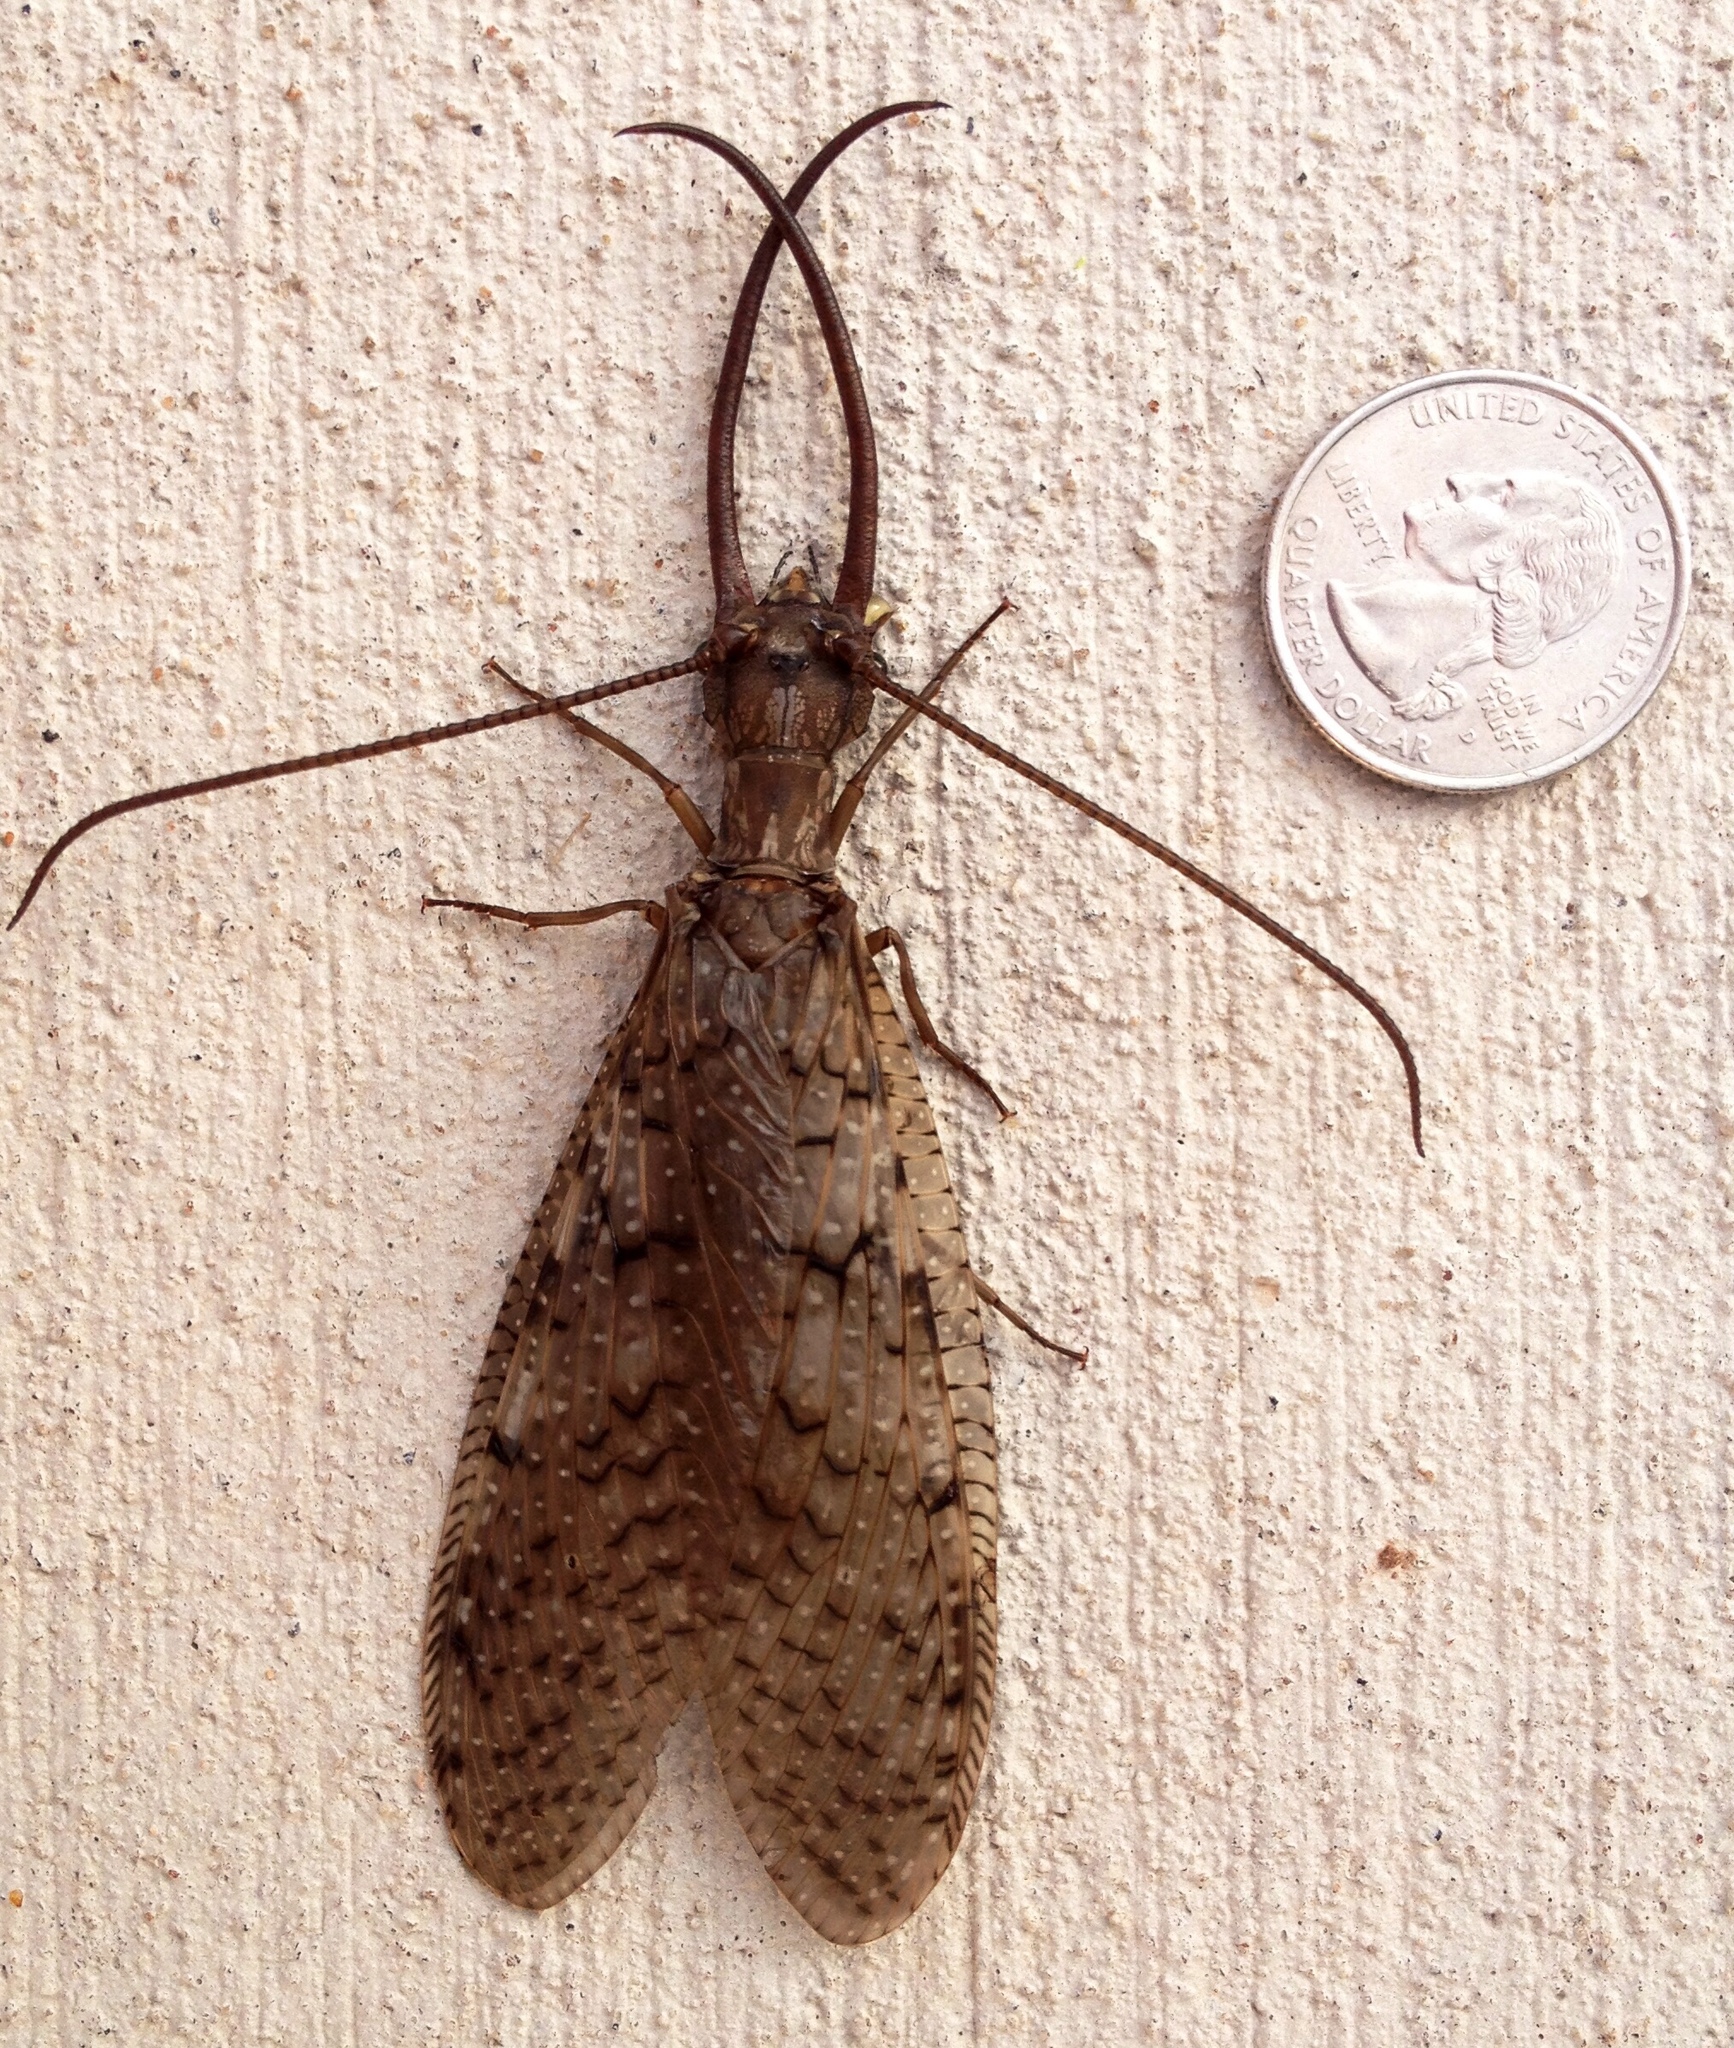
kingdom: Animalia
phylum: Arthropoda
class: Insecta
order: Megaloptera
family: Corydalidae
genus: Corydalus
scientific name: Corydalus cornutus
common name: Dobsonfly
